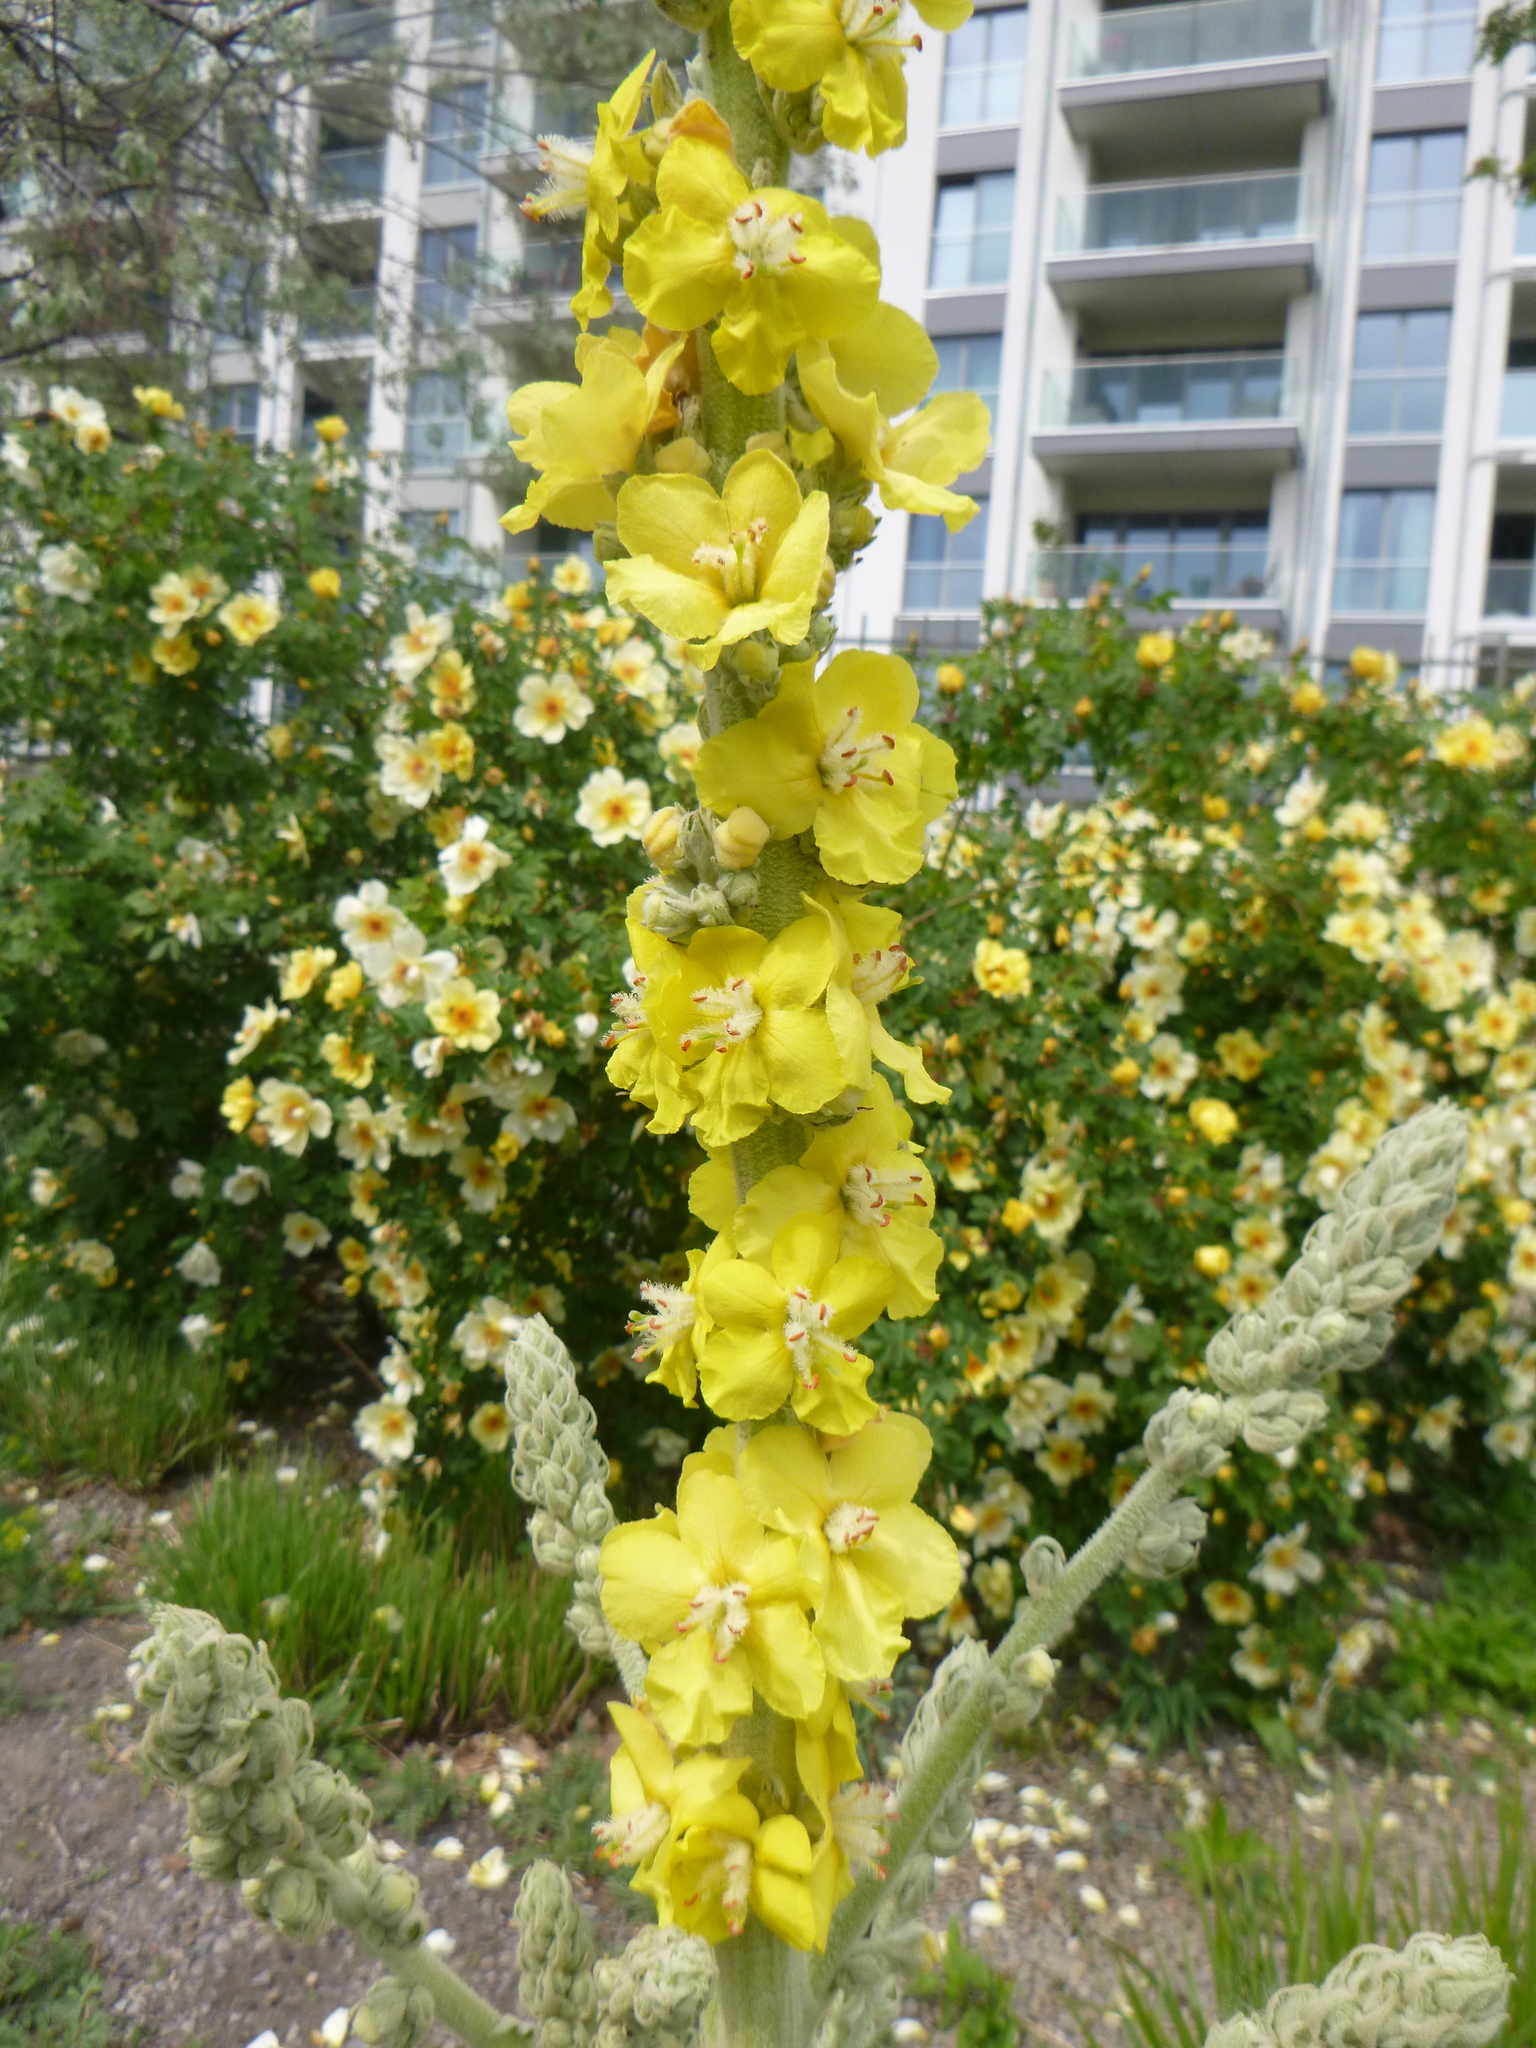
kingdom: Plantae
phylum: Tracheophyta
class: Magnoliopsida
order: Lamiales
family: Scrophulariaceae
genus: Verbascum
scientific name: Verbascum speciosum
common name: Hungarian mullein
